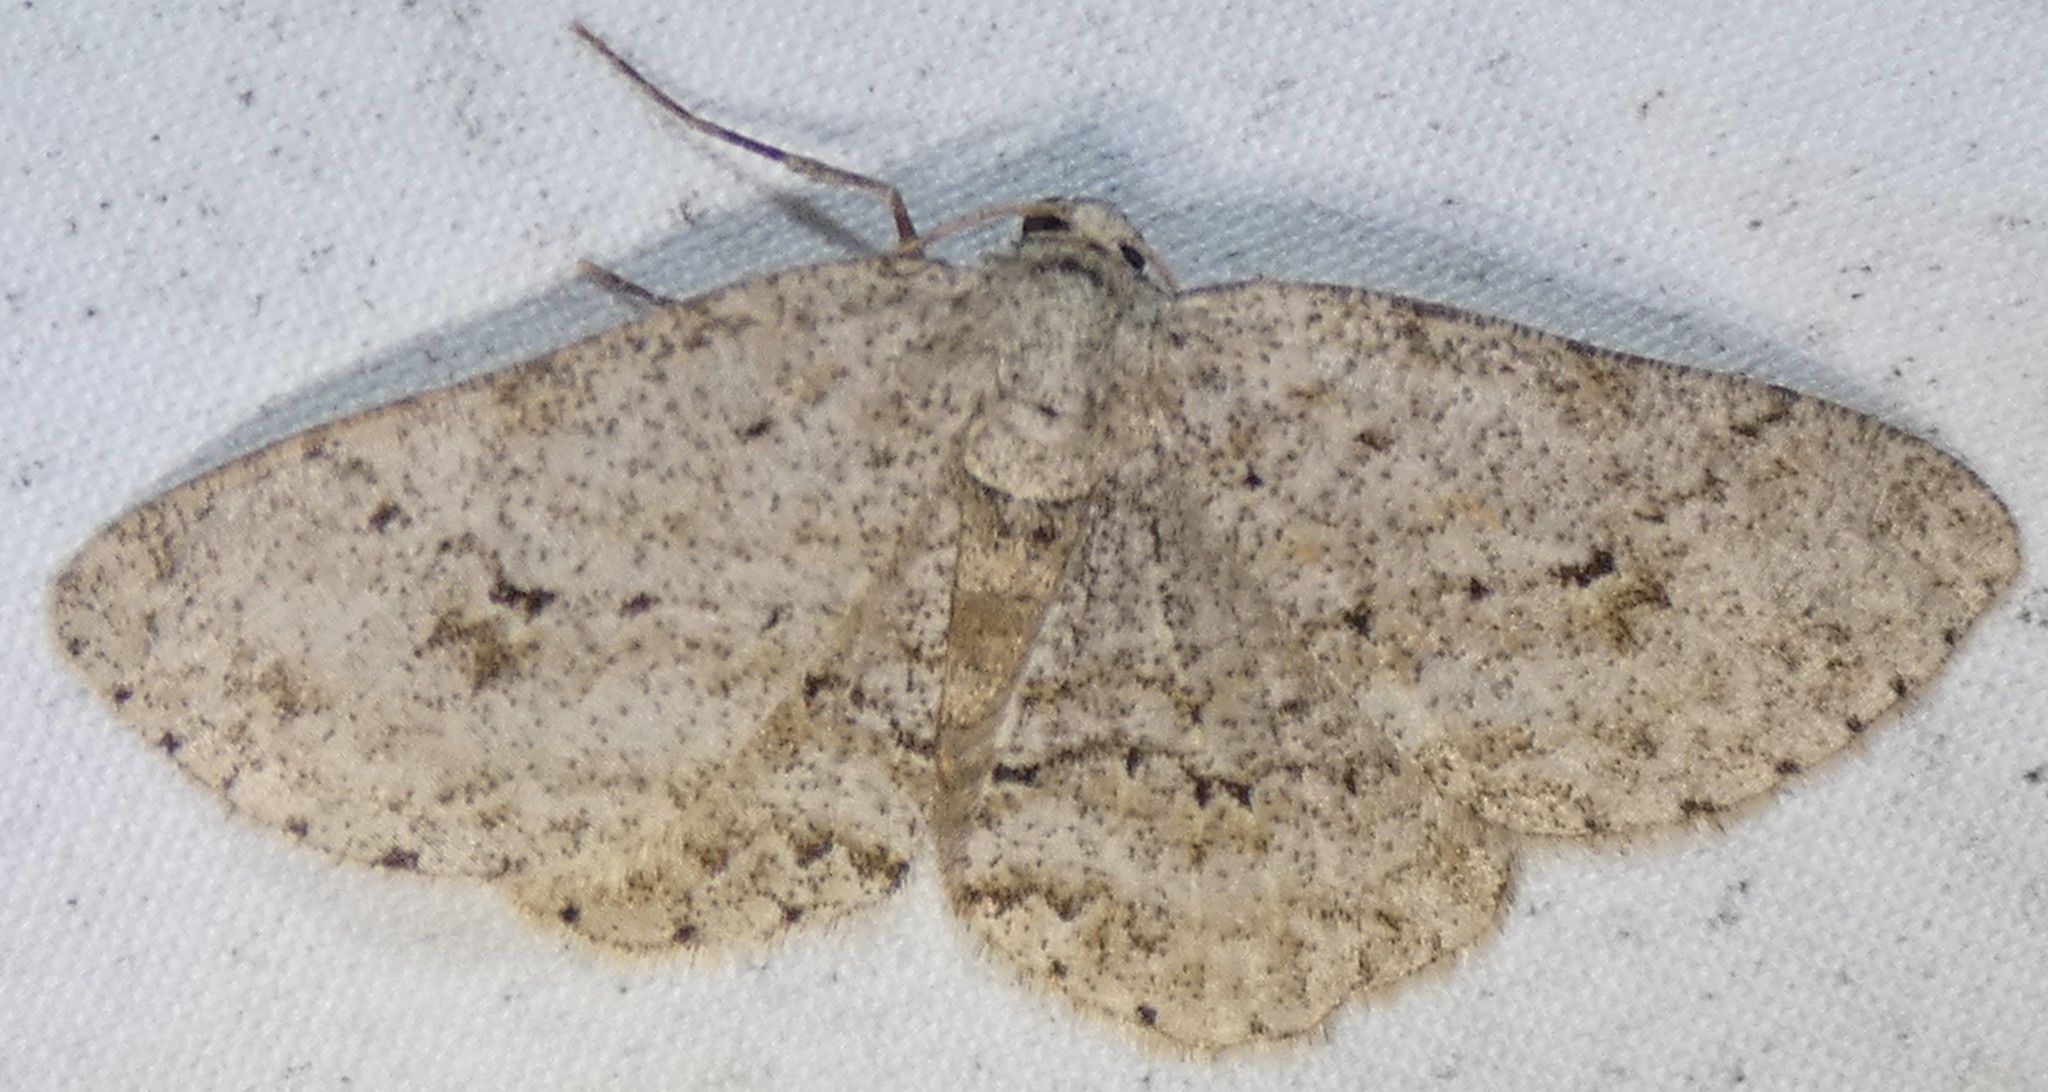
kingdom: Animalia
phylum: Arthropoda
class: Insecta
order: Lepidoptera
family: Geometridae
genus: Ectropis
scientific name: Ectropis crepuscularia
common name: Engrailed
